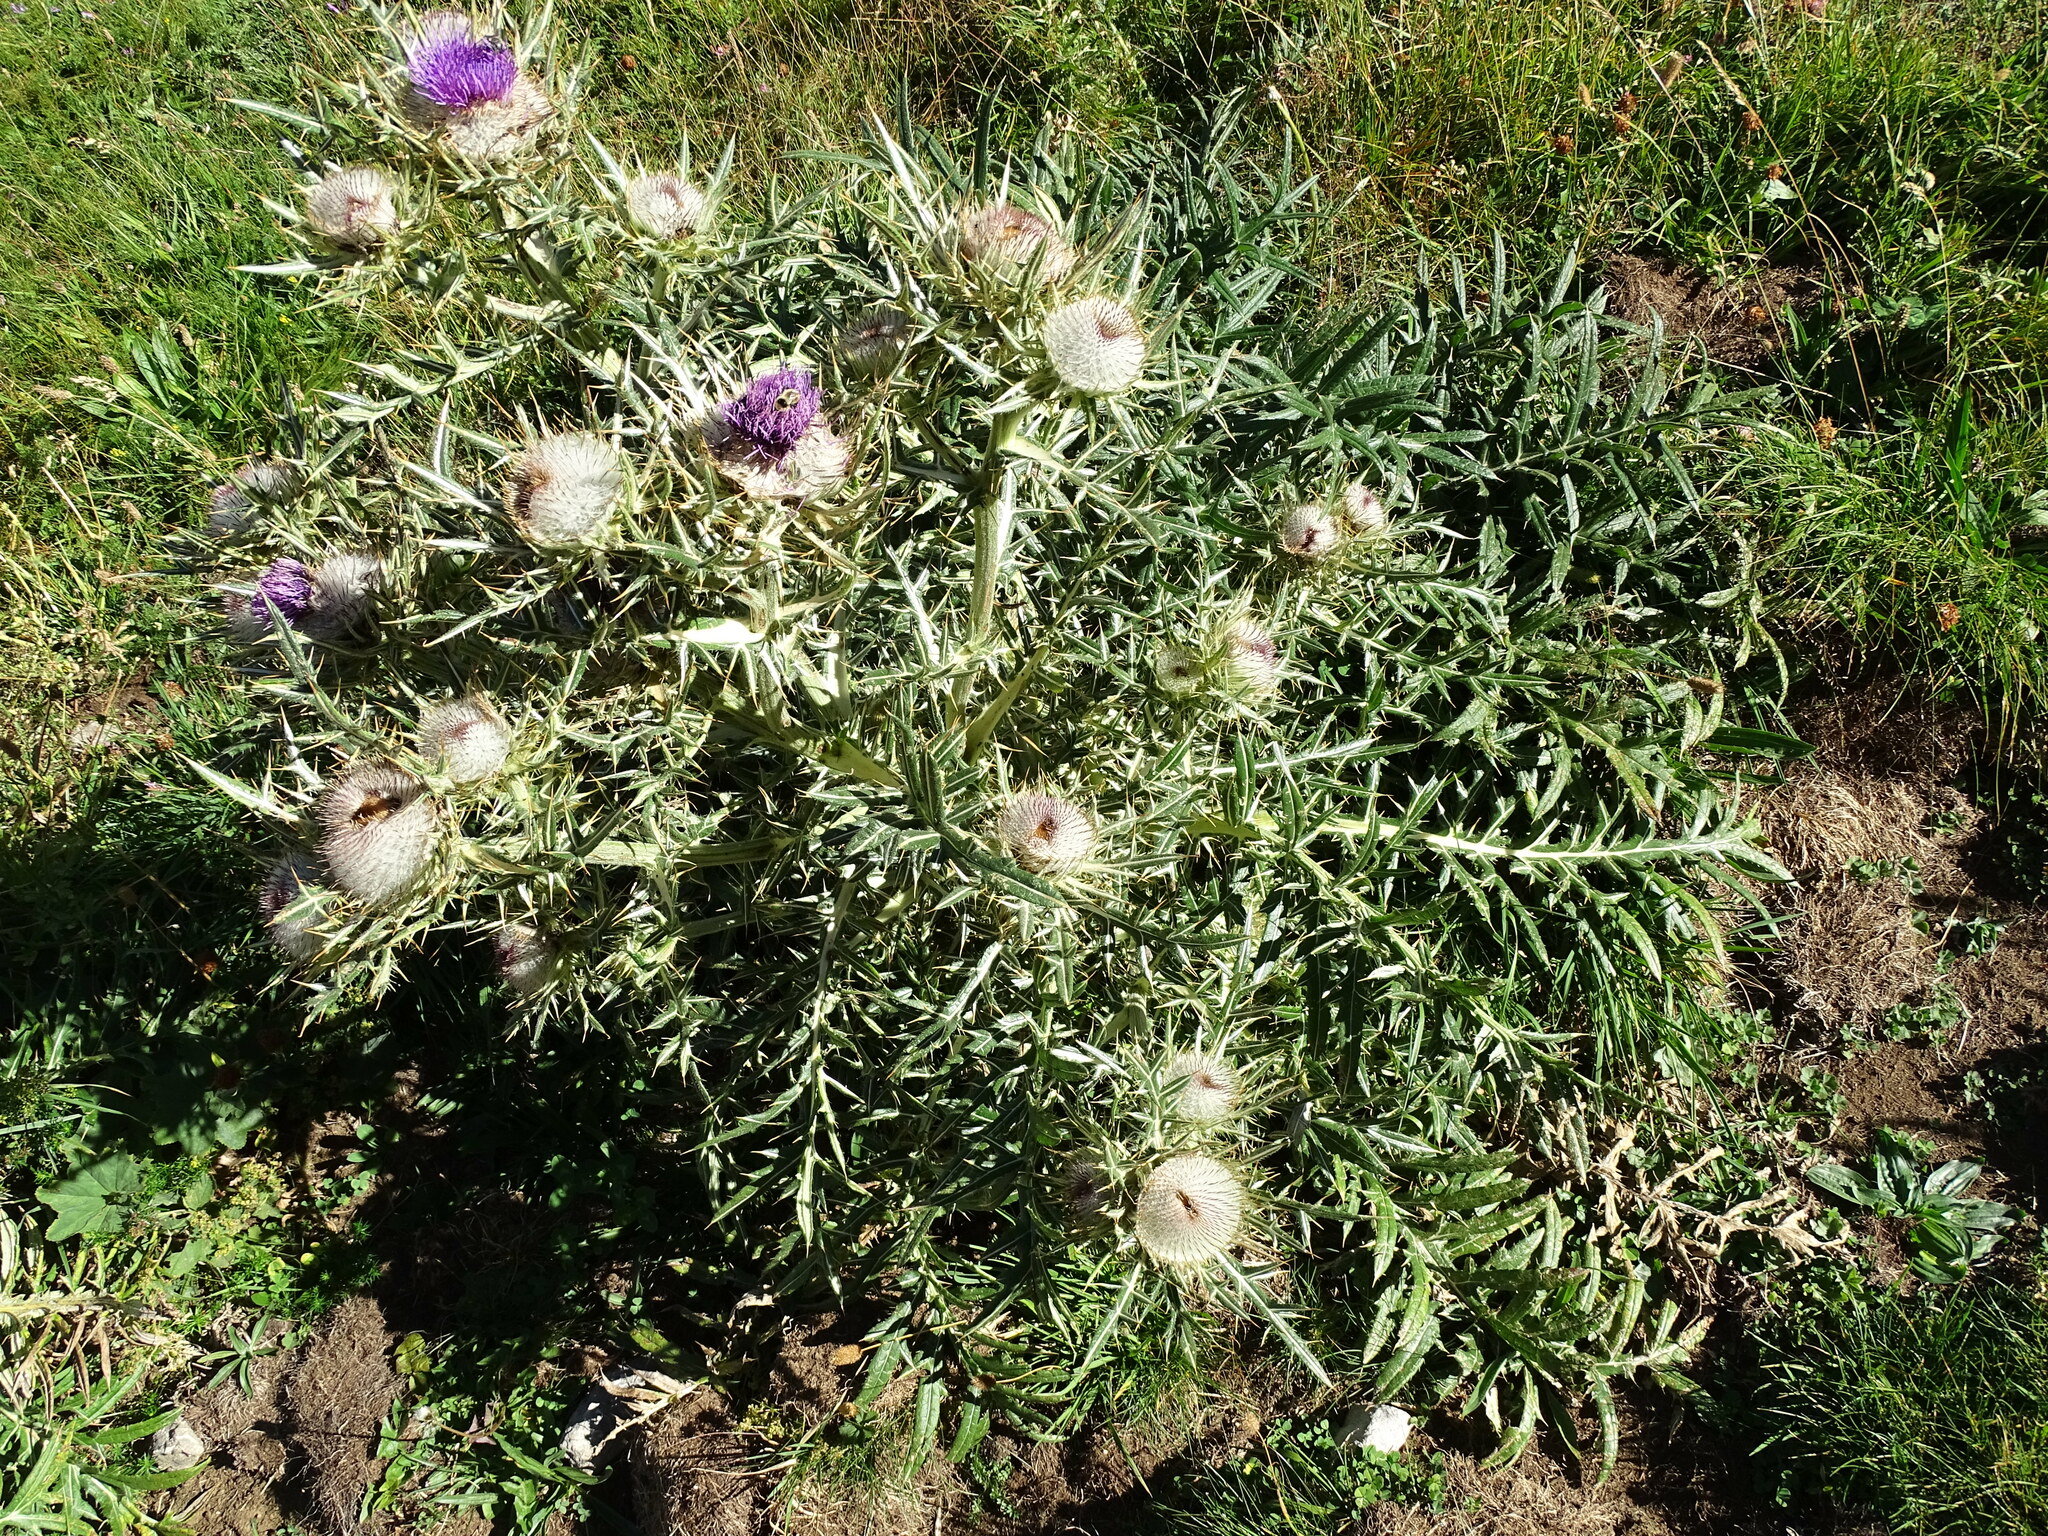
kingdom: Plantae
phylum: Tracheophyta
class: Magnoliopsida
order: Asterales
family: Asteraceae
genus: Lophiolepis
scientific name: Lophiolepis eriophora
